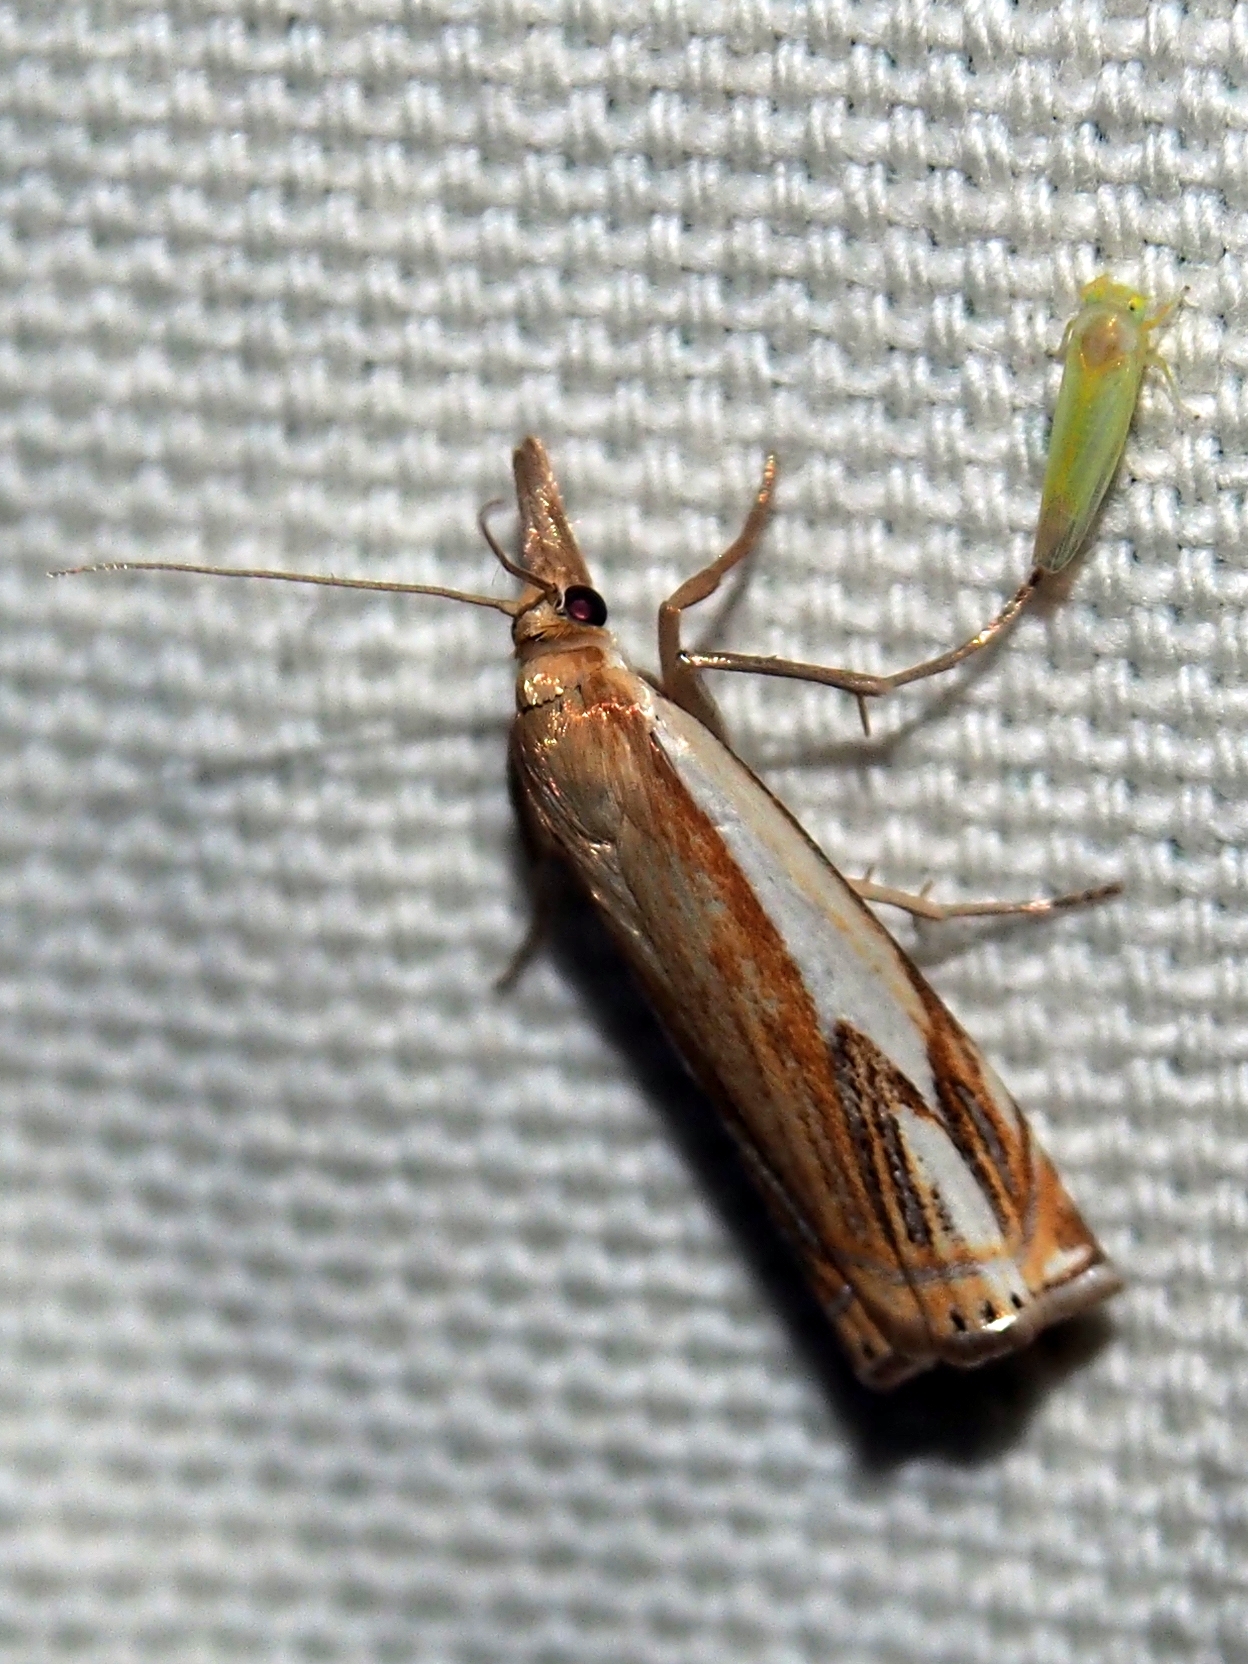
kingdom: Animalia
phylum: Arthropoda
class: Insecta
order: Lepidoptera
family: Crambidae
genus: Crambus
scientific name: Crambus agitatellus
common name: Double-banded grass-veneer
